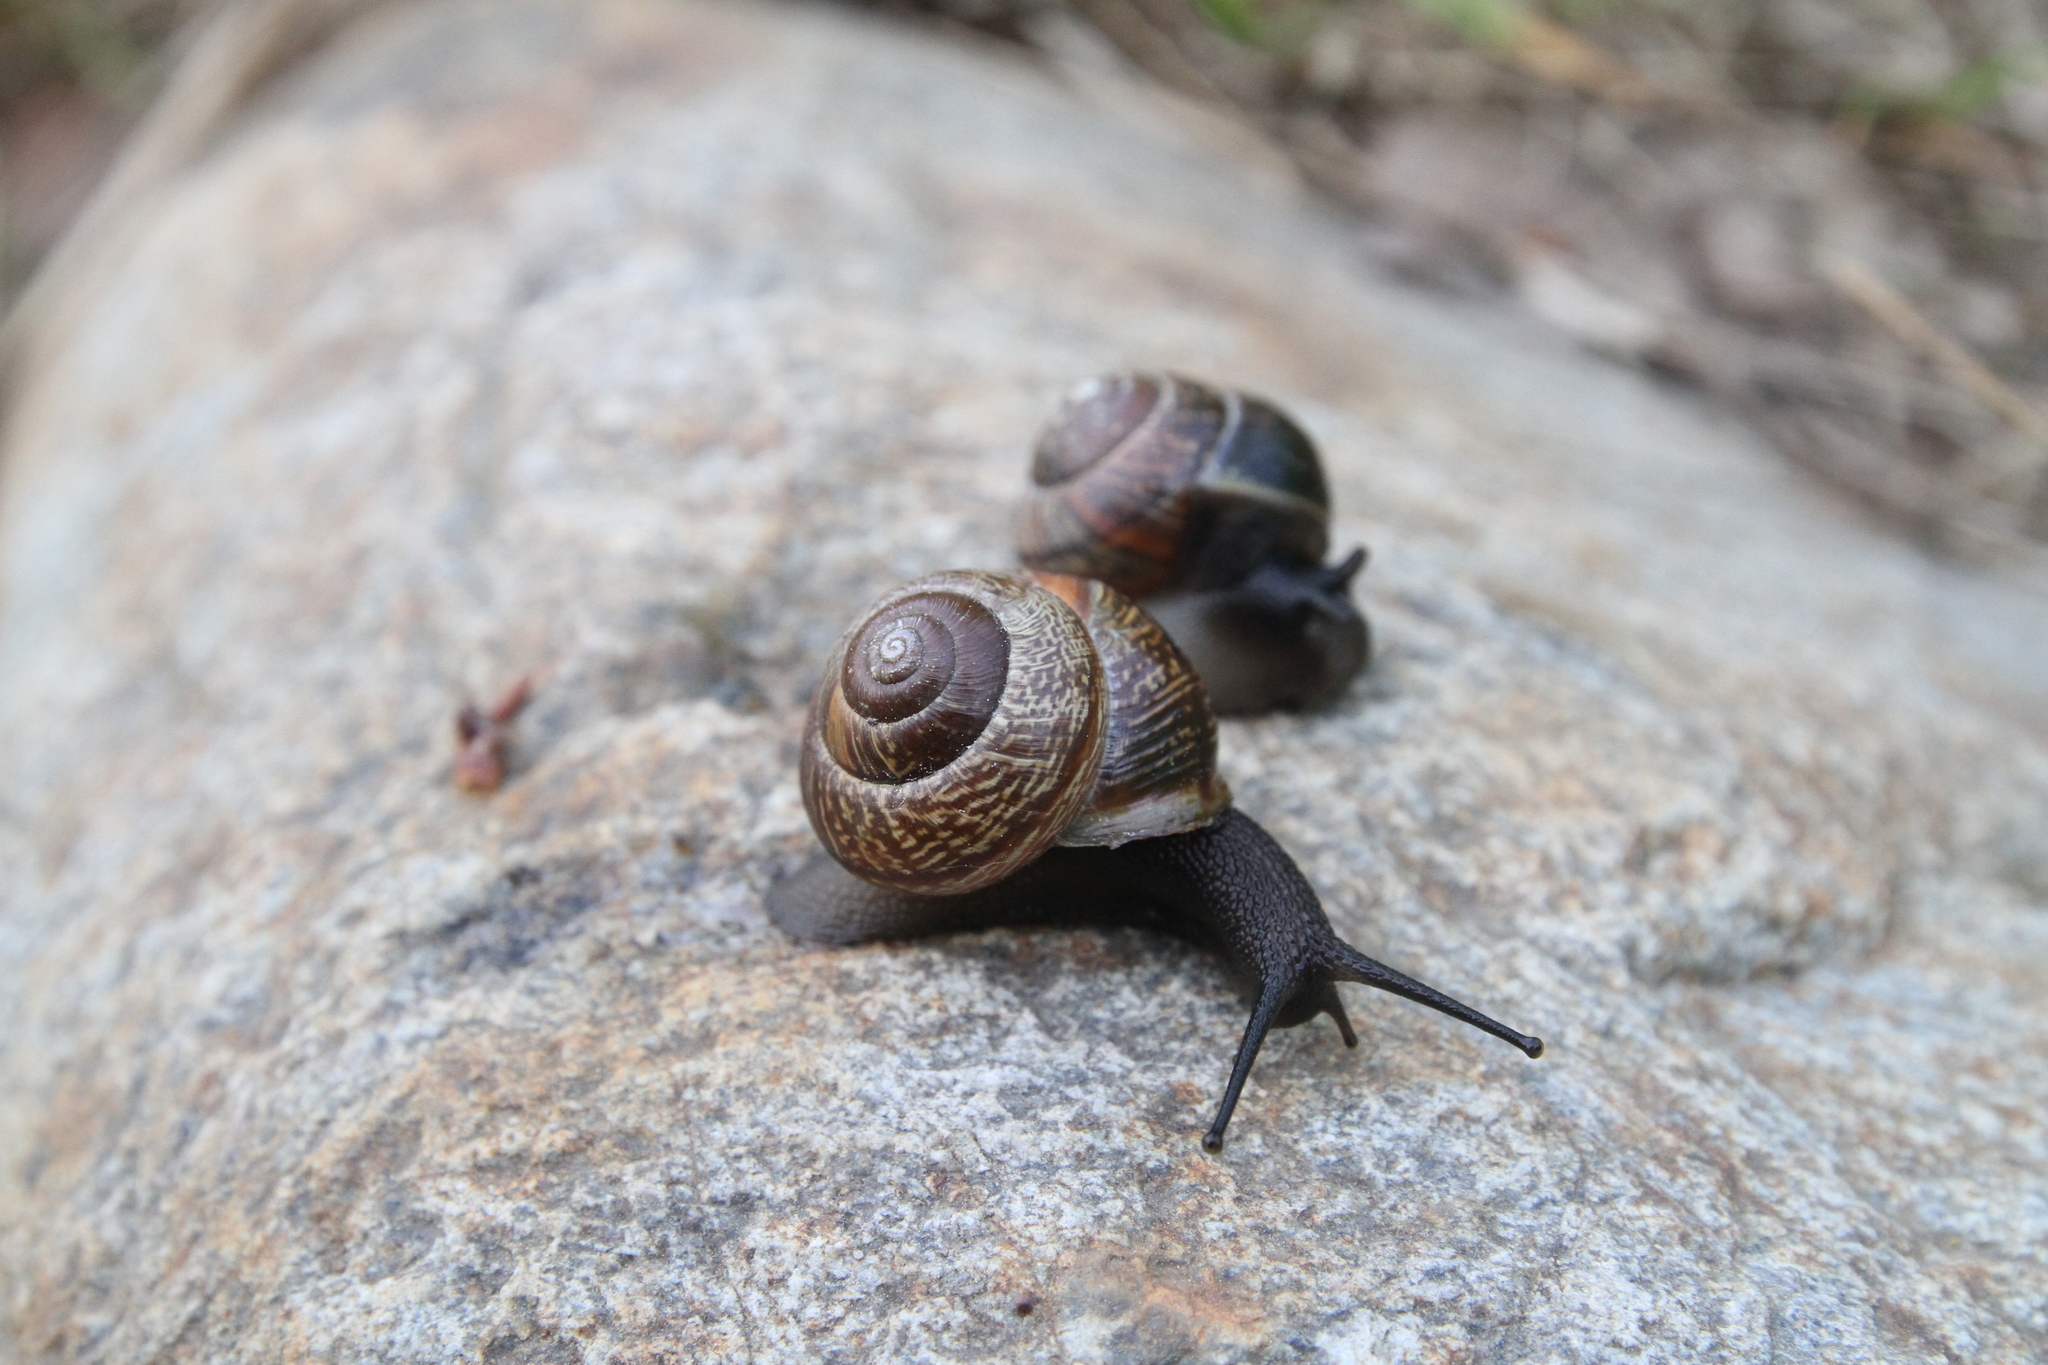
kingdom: Animalia
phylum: Mollusca
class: Gastropoda
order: Stylommatophora
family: Helicidae
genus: Arianta
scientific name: Arianta arbustorum
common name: Copse snail
